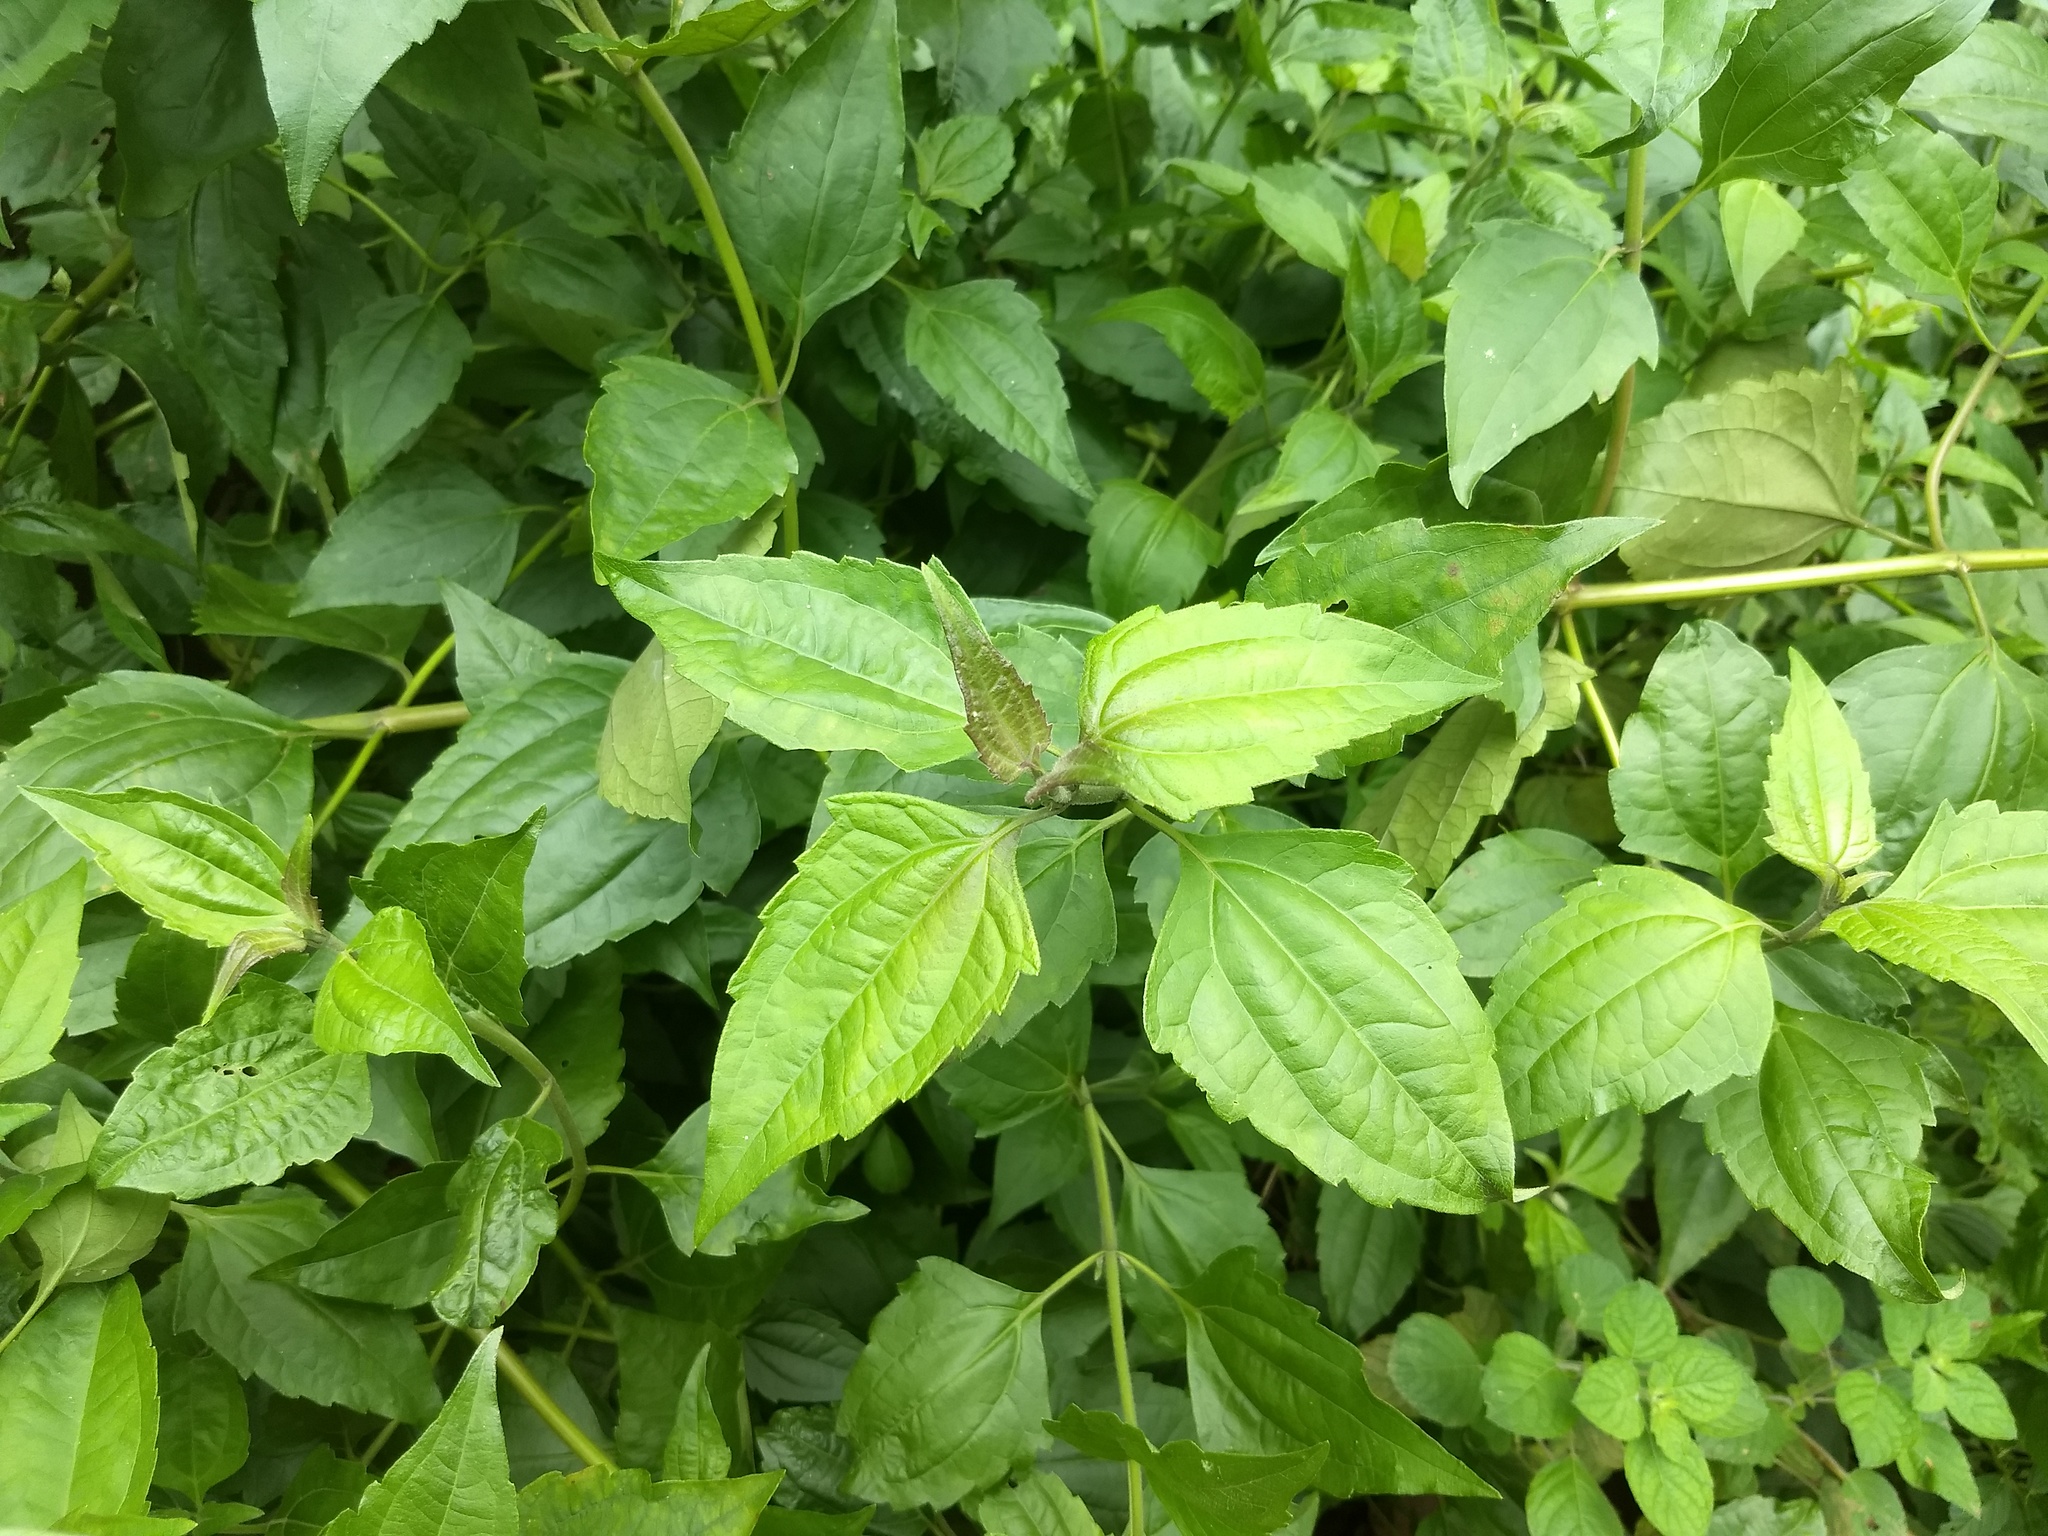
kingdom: Plantae
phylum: Tracheophyta
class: Magnoliopsida
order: Asterales
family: Asteraceae
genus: Chromolaena
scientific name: Chromolaena odorata
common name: Siamweed
